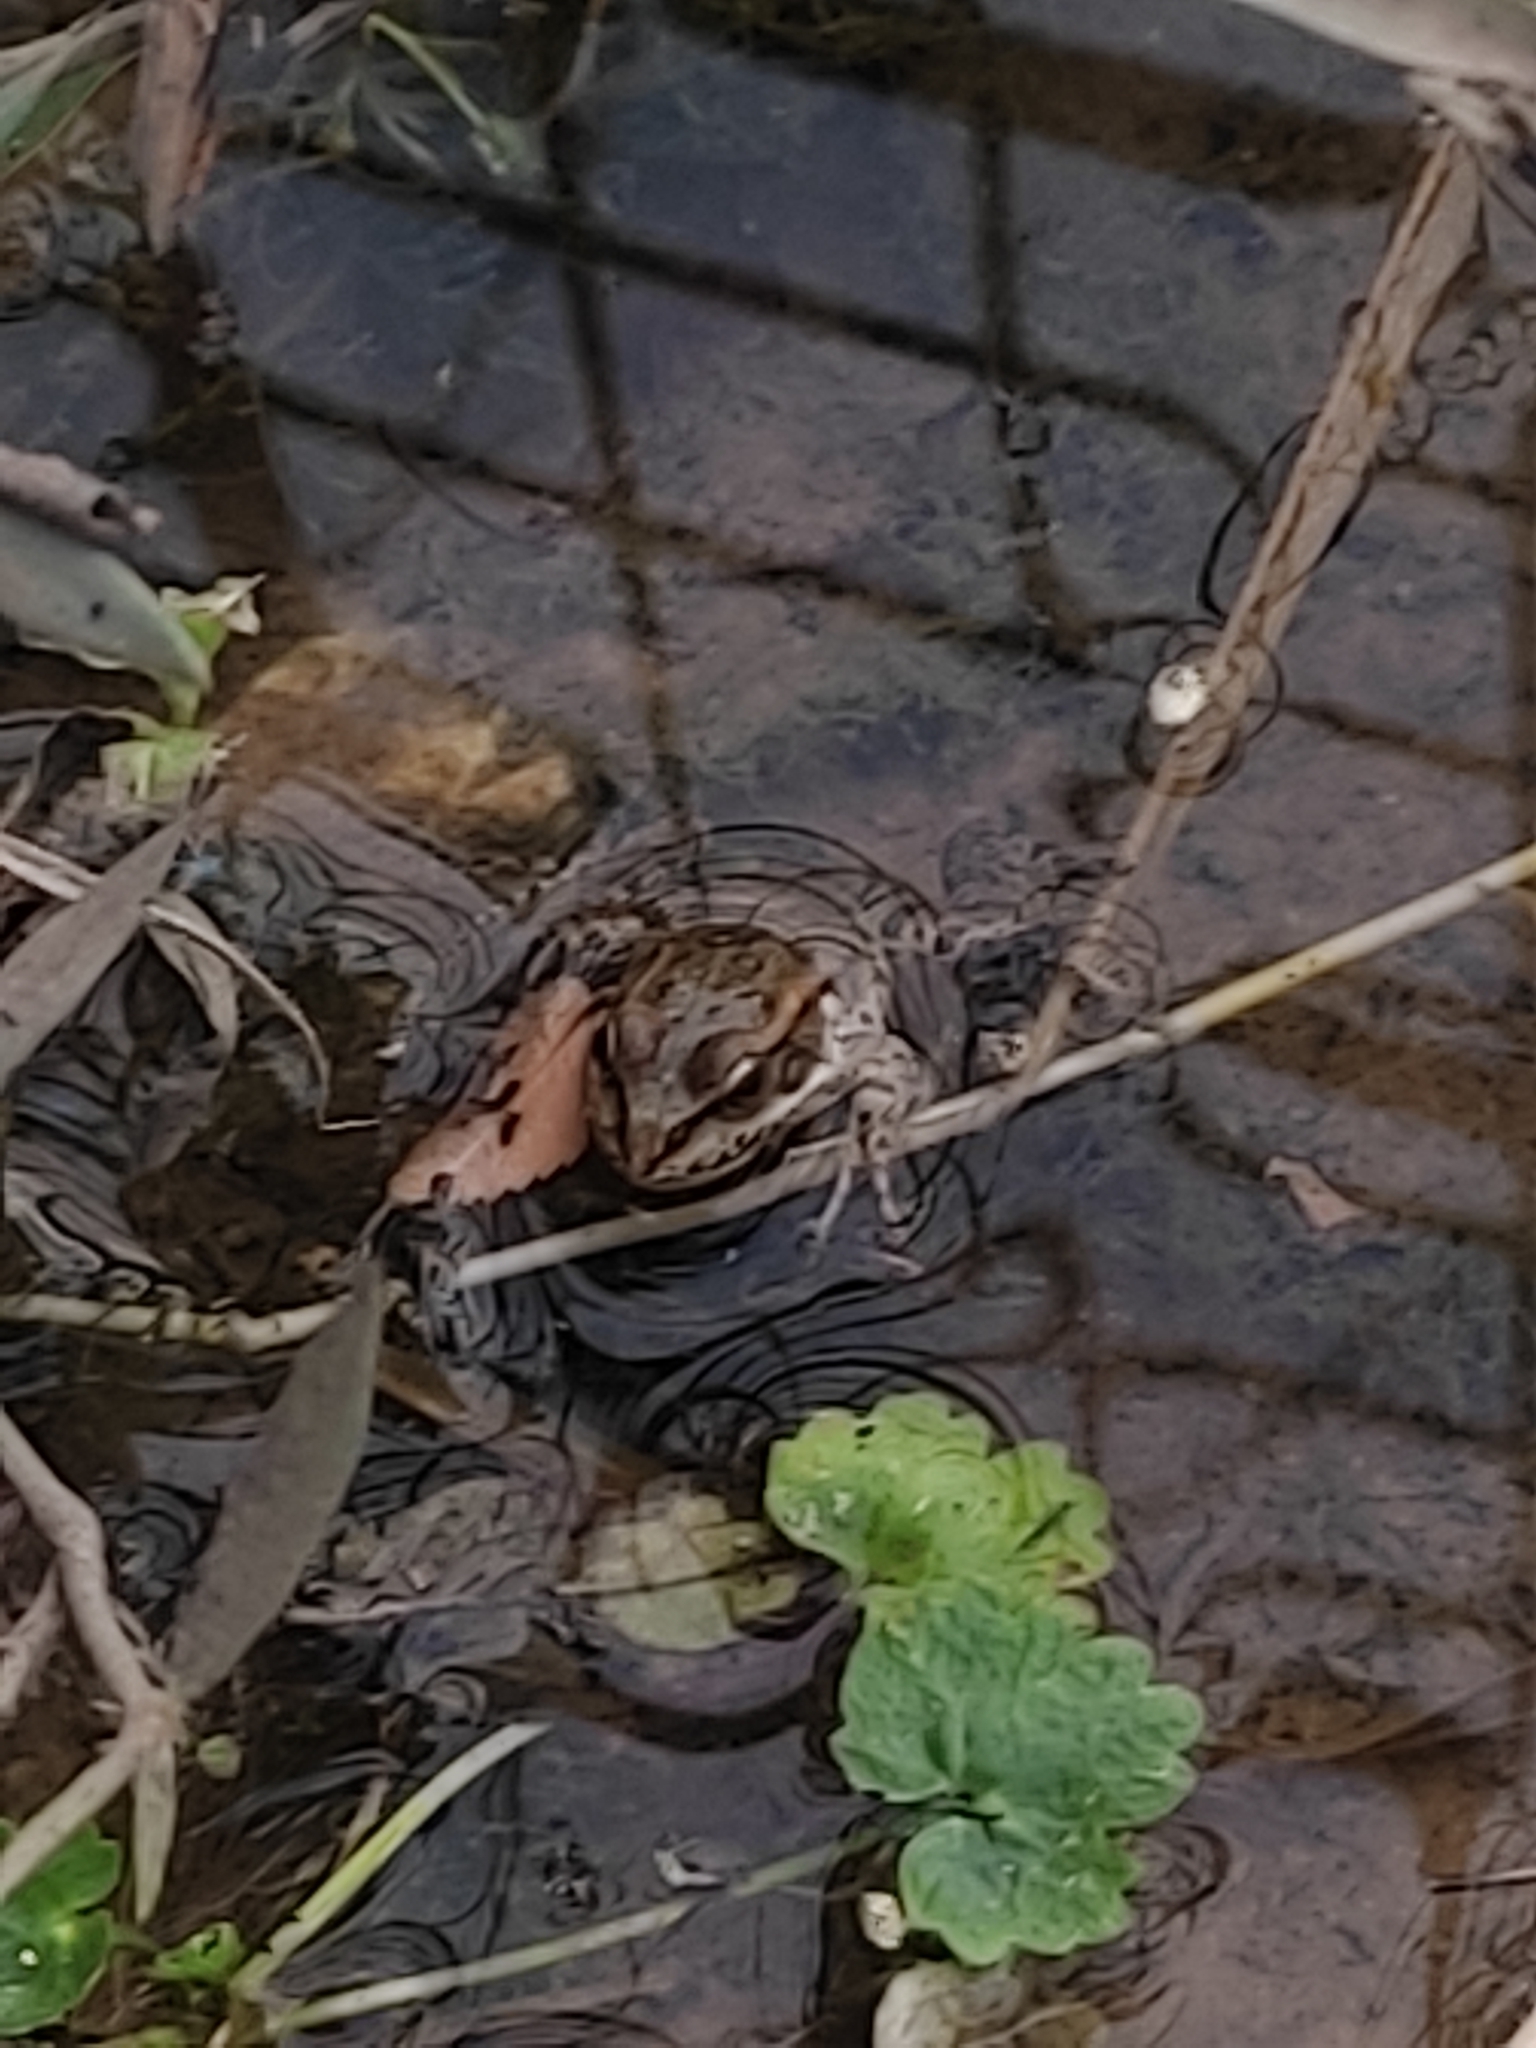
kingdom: Animalia
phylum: Chordata
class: Amphibia
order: Anura
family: Ranidae
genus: Pelophylax
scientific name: Pelophylax ridibundus
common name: Marsh frog
